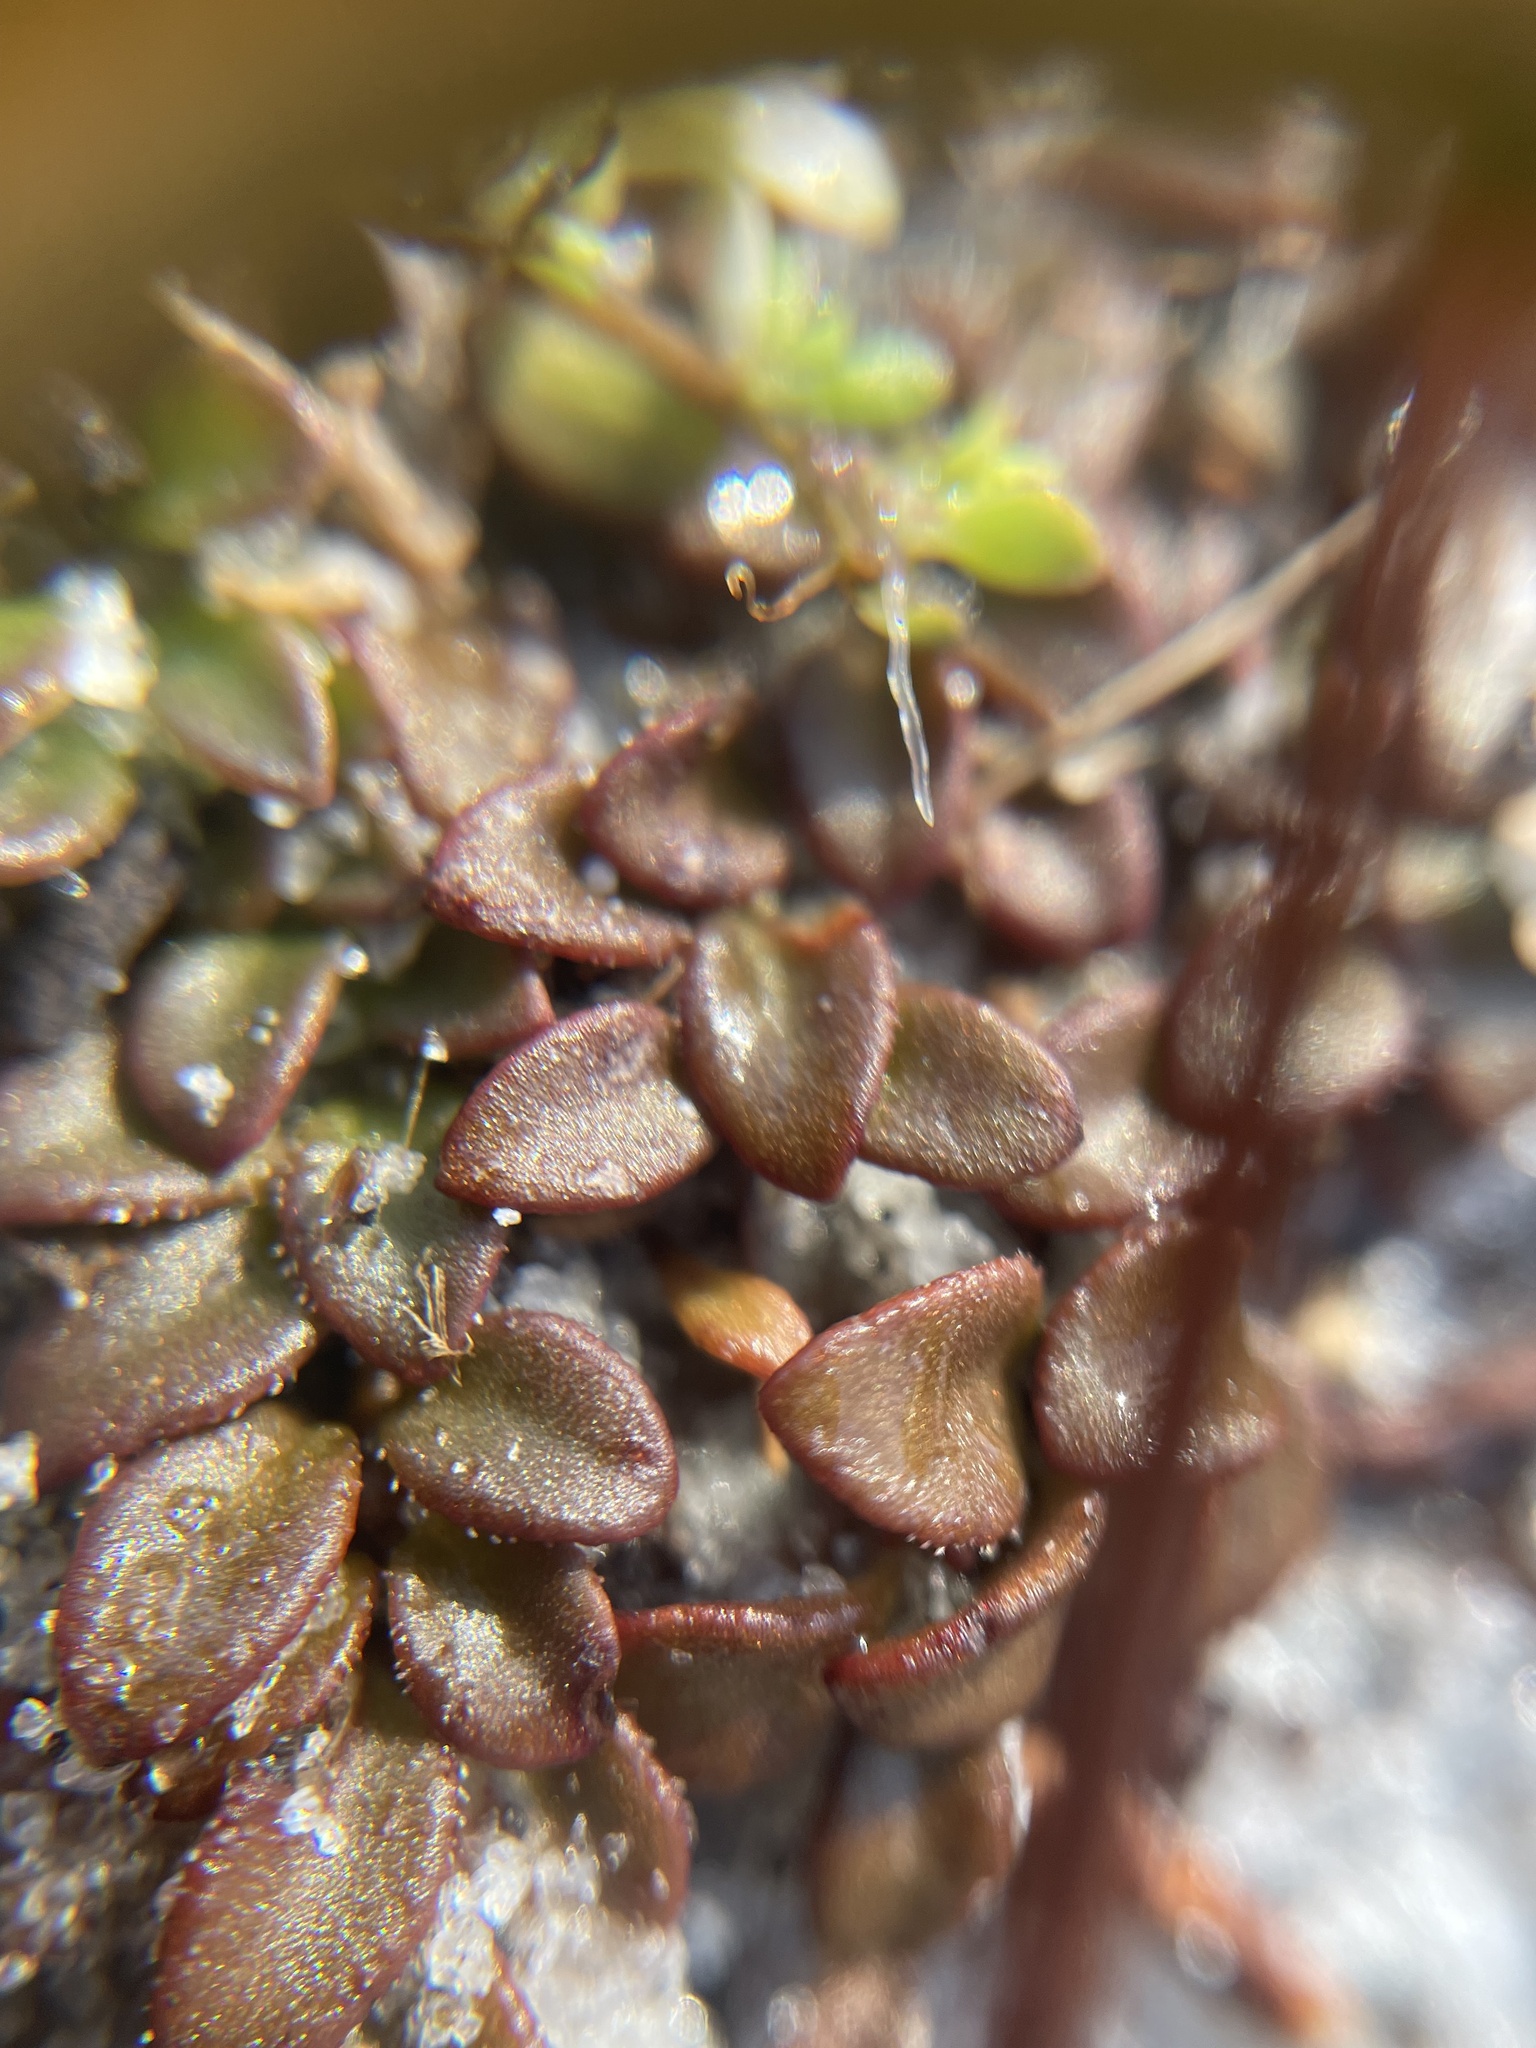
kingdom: Plantae
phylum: Tracheophyta
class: Magnoliopsida
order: Gentianales
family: Rubiaceae
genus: Houstonia
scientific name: Houstonia procumbens
